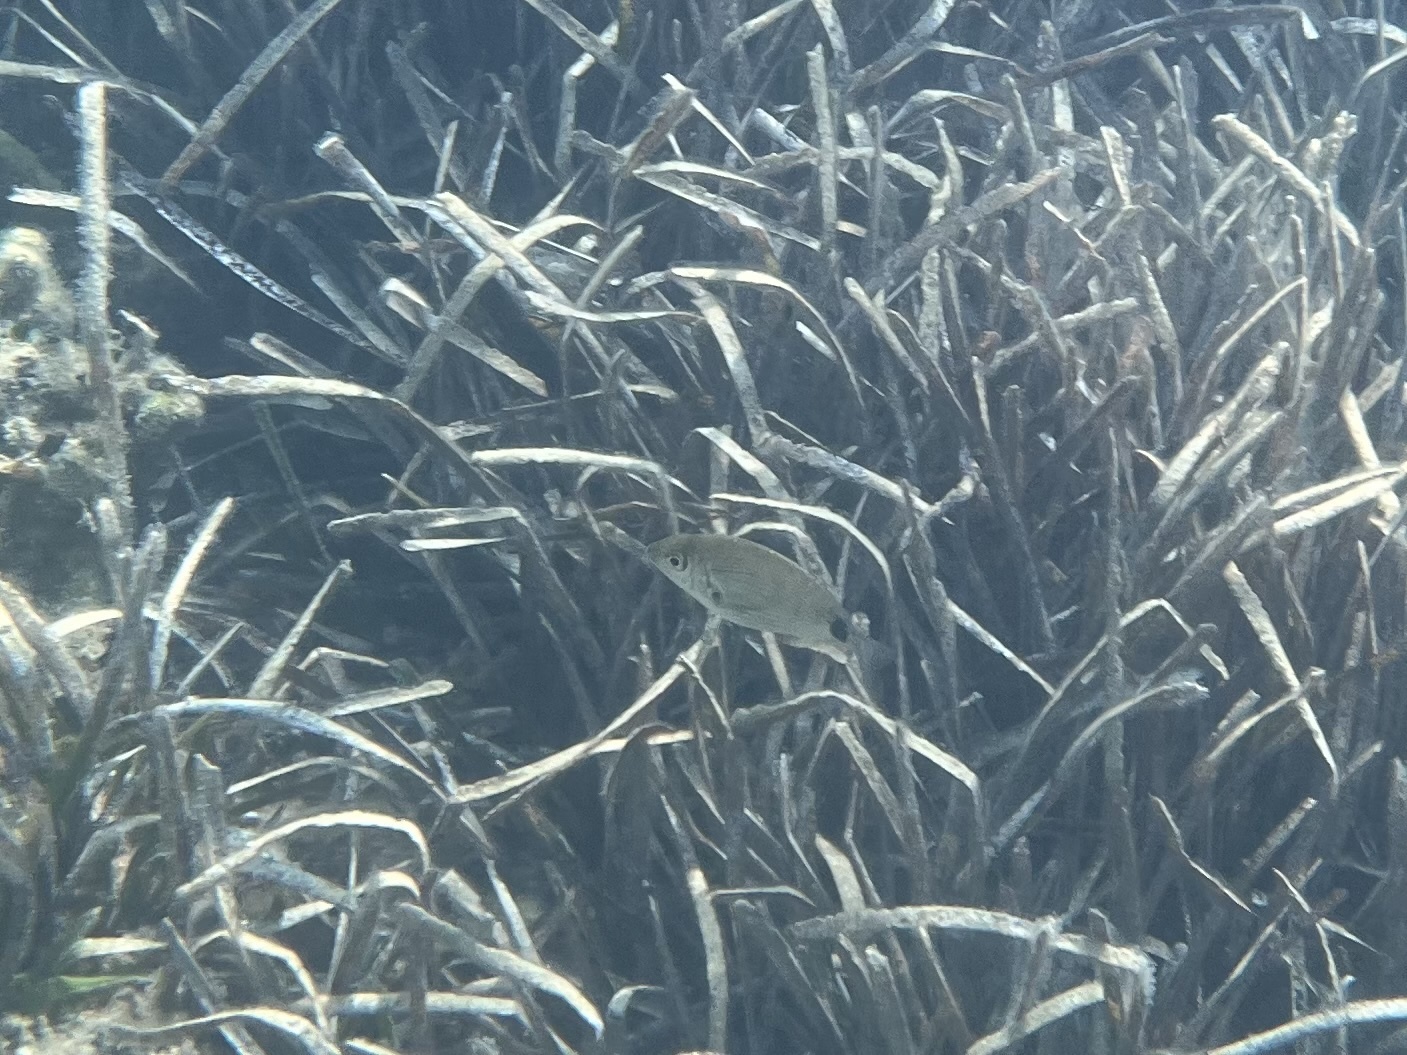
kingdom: Animalia
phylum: Chordata
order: Perciformes
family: Sparidae
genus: Diplodus
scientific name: Diplodus annularis
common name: Annular seabream
